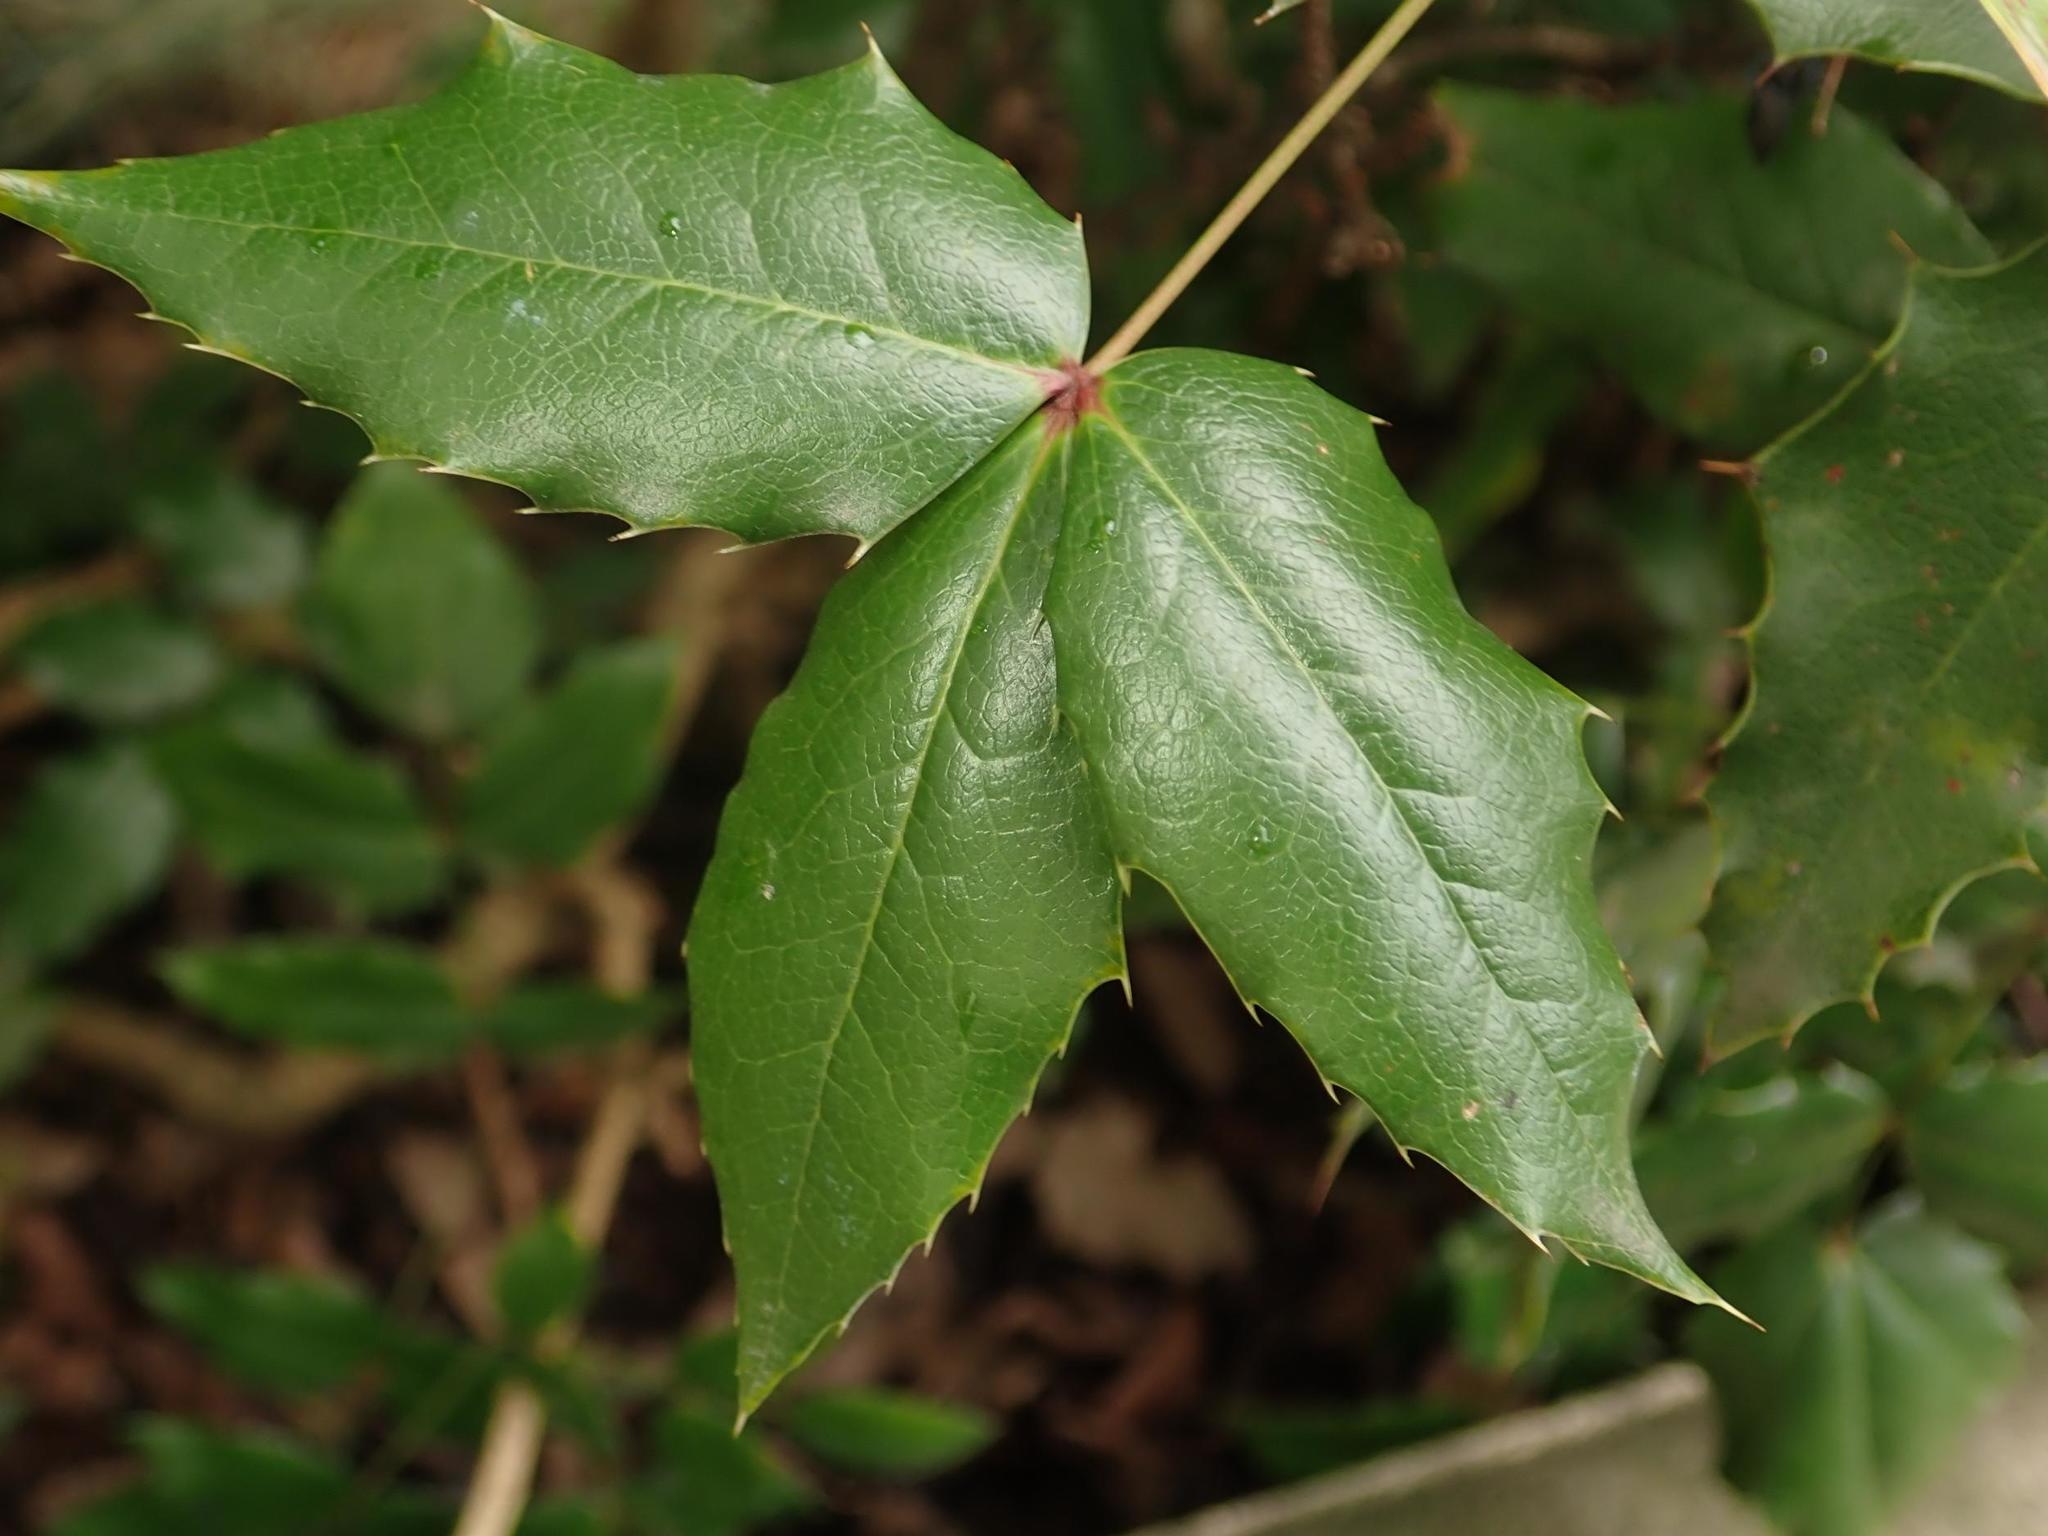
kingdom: Plantae
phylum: Tracheophyta
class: Magnoliopsida
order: Ranunculales
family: Berberidaceae
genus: Mahonia
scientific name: Mahonia aquifolium
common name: Oregon-grape
